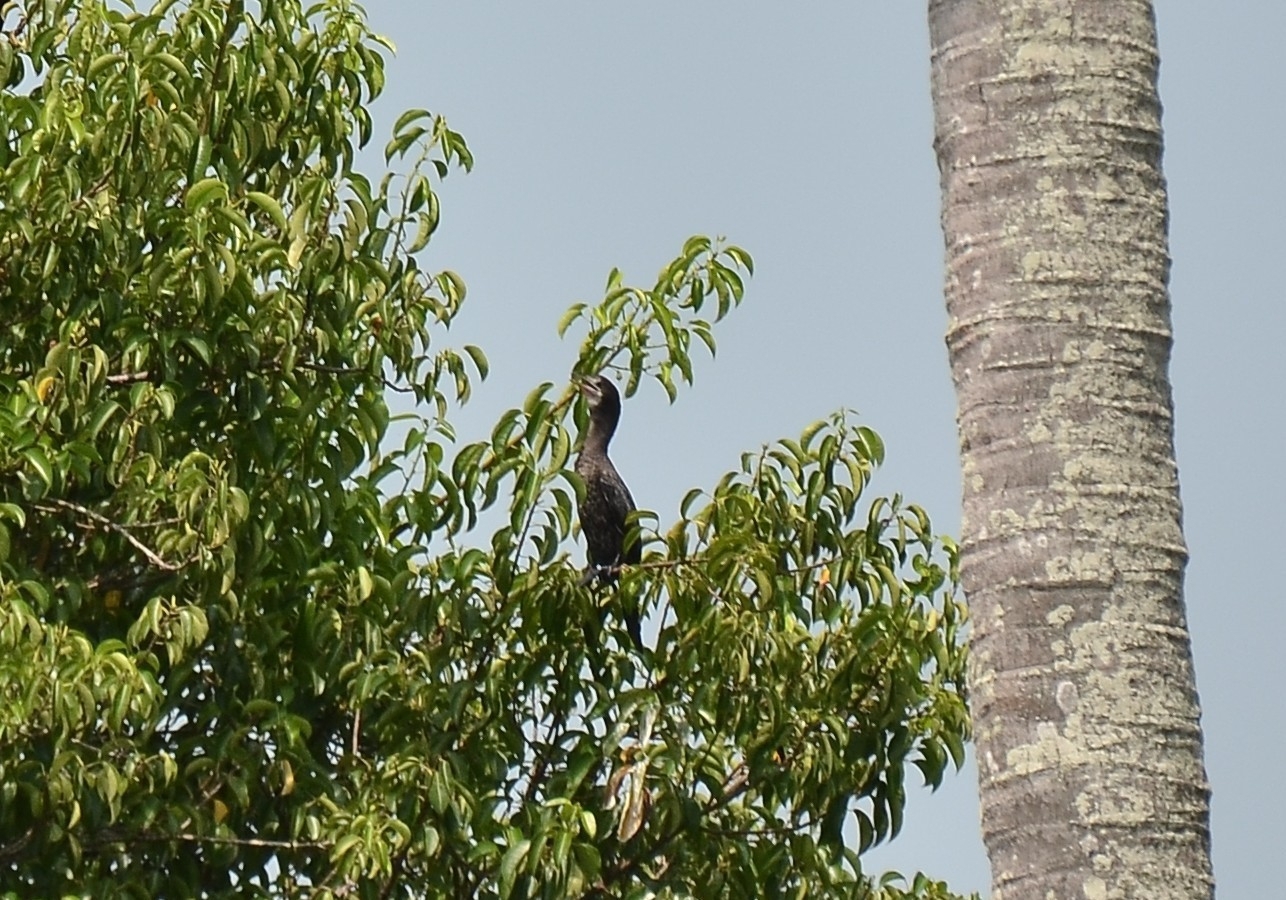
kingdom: Animalia
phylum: Chordata
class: Aves
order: Suliformes
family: Phalacrocoracidae
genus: Microcarbo
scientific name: Microcarbo niger
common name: Little cormorant
